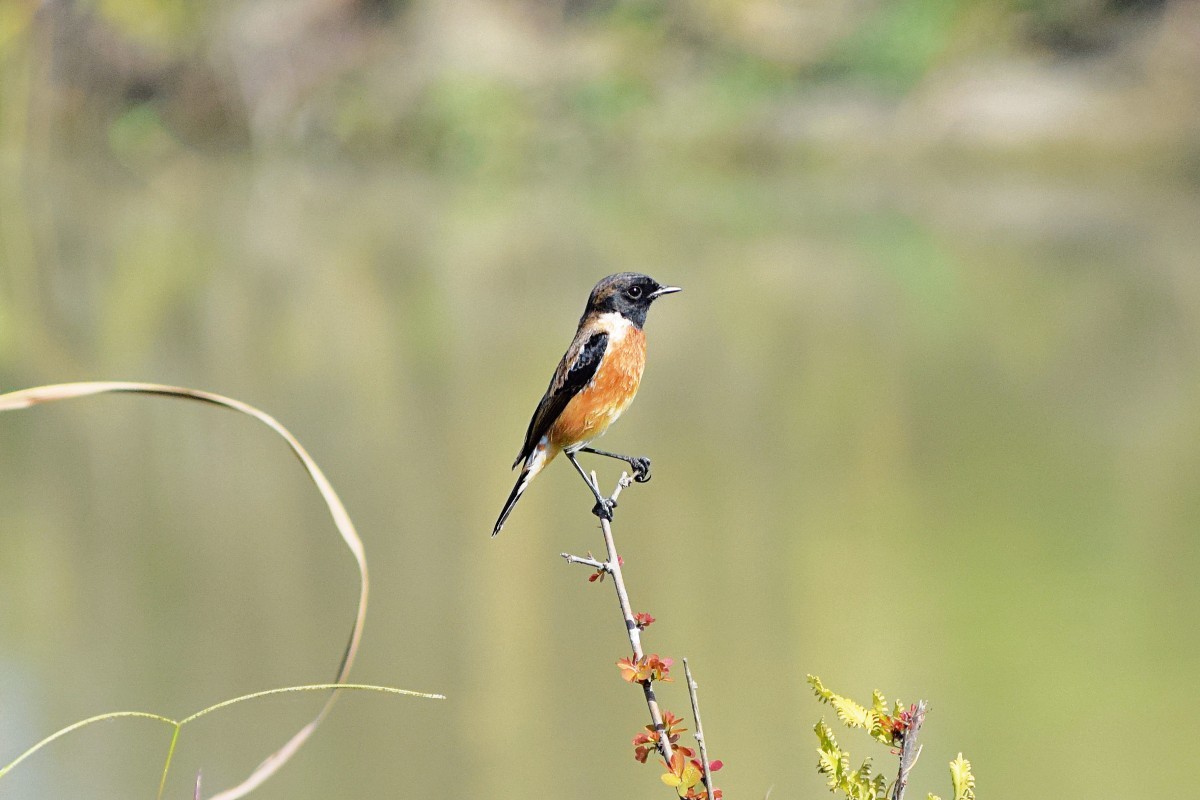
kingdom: Animalia
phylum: Chordata
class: Aves
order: Passeriformes
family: Muscicapidae
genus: Saxicola
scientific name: Saxicola maurus
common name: Siberian stonechat
